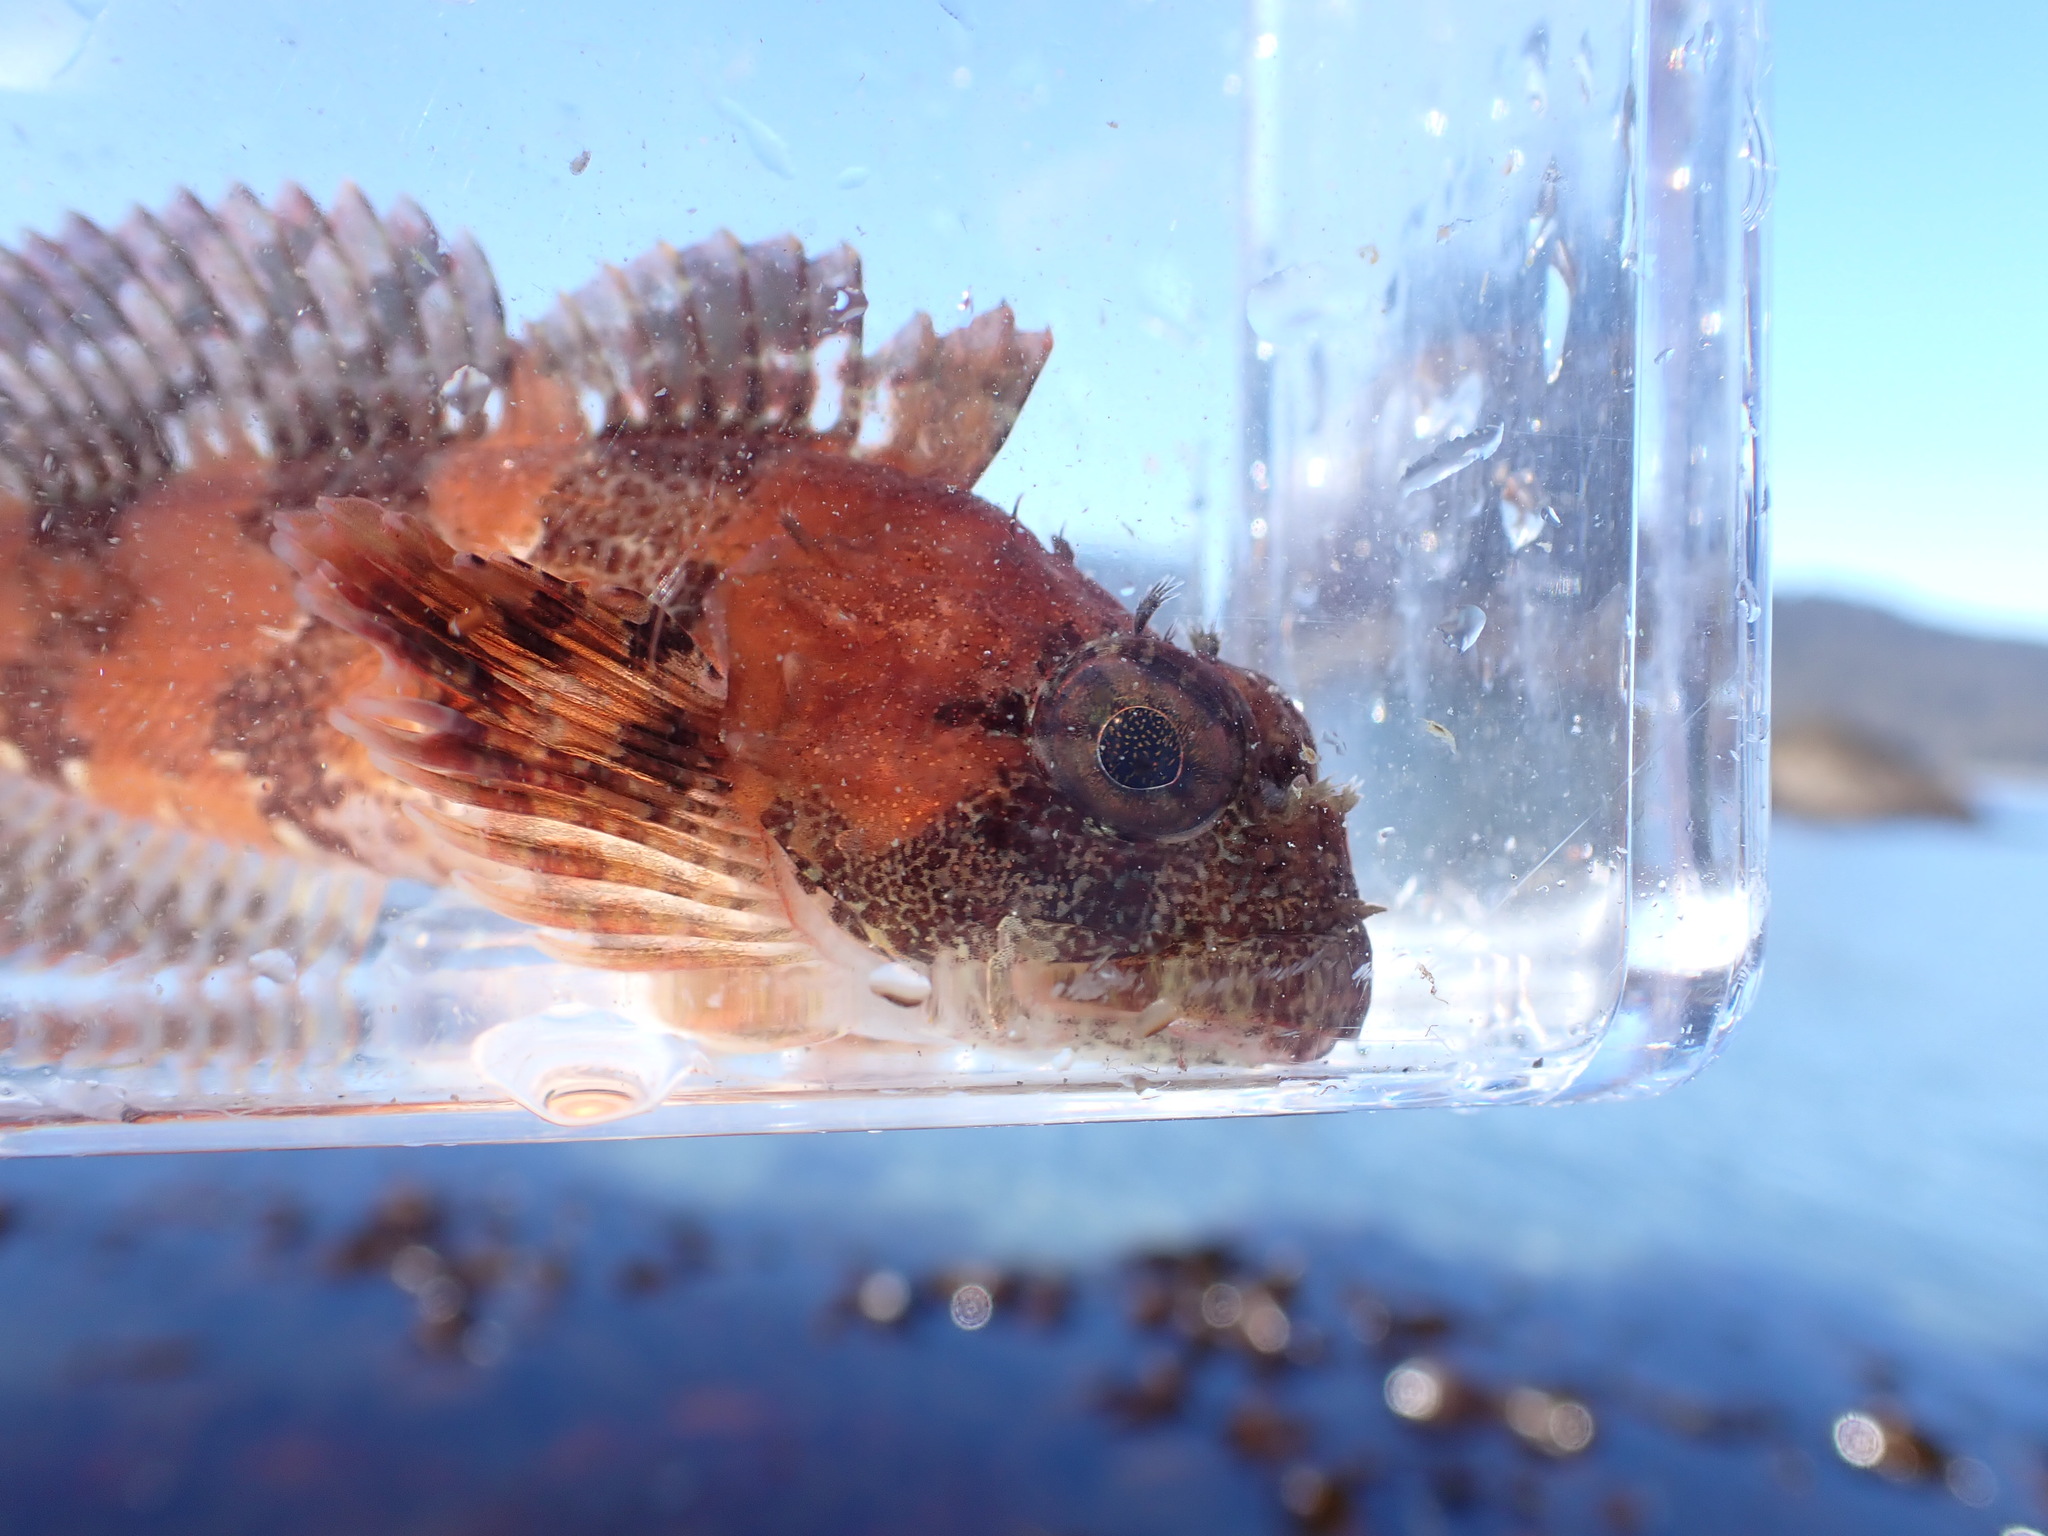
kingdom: Animalia
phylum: Chordata
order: Scorpaeniformes
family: Cottidae
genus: Hemilepidotus
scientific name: Hemilepidotus hemilepidotus
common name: Red irish lord
